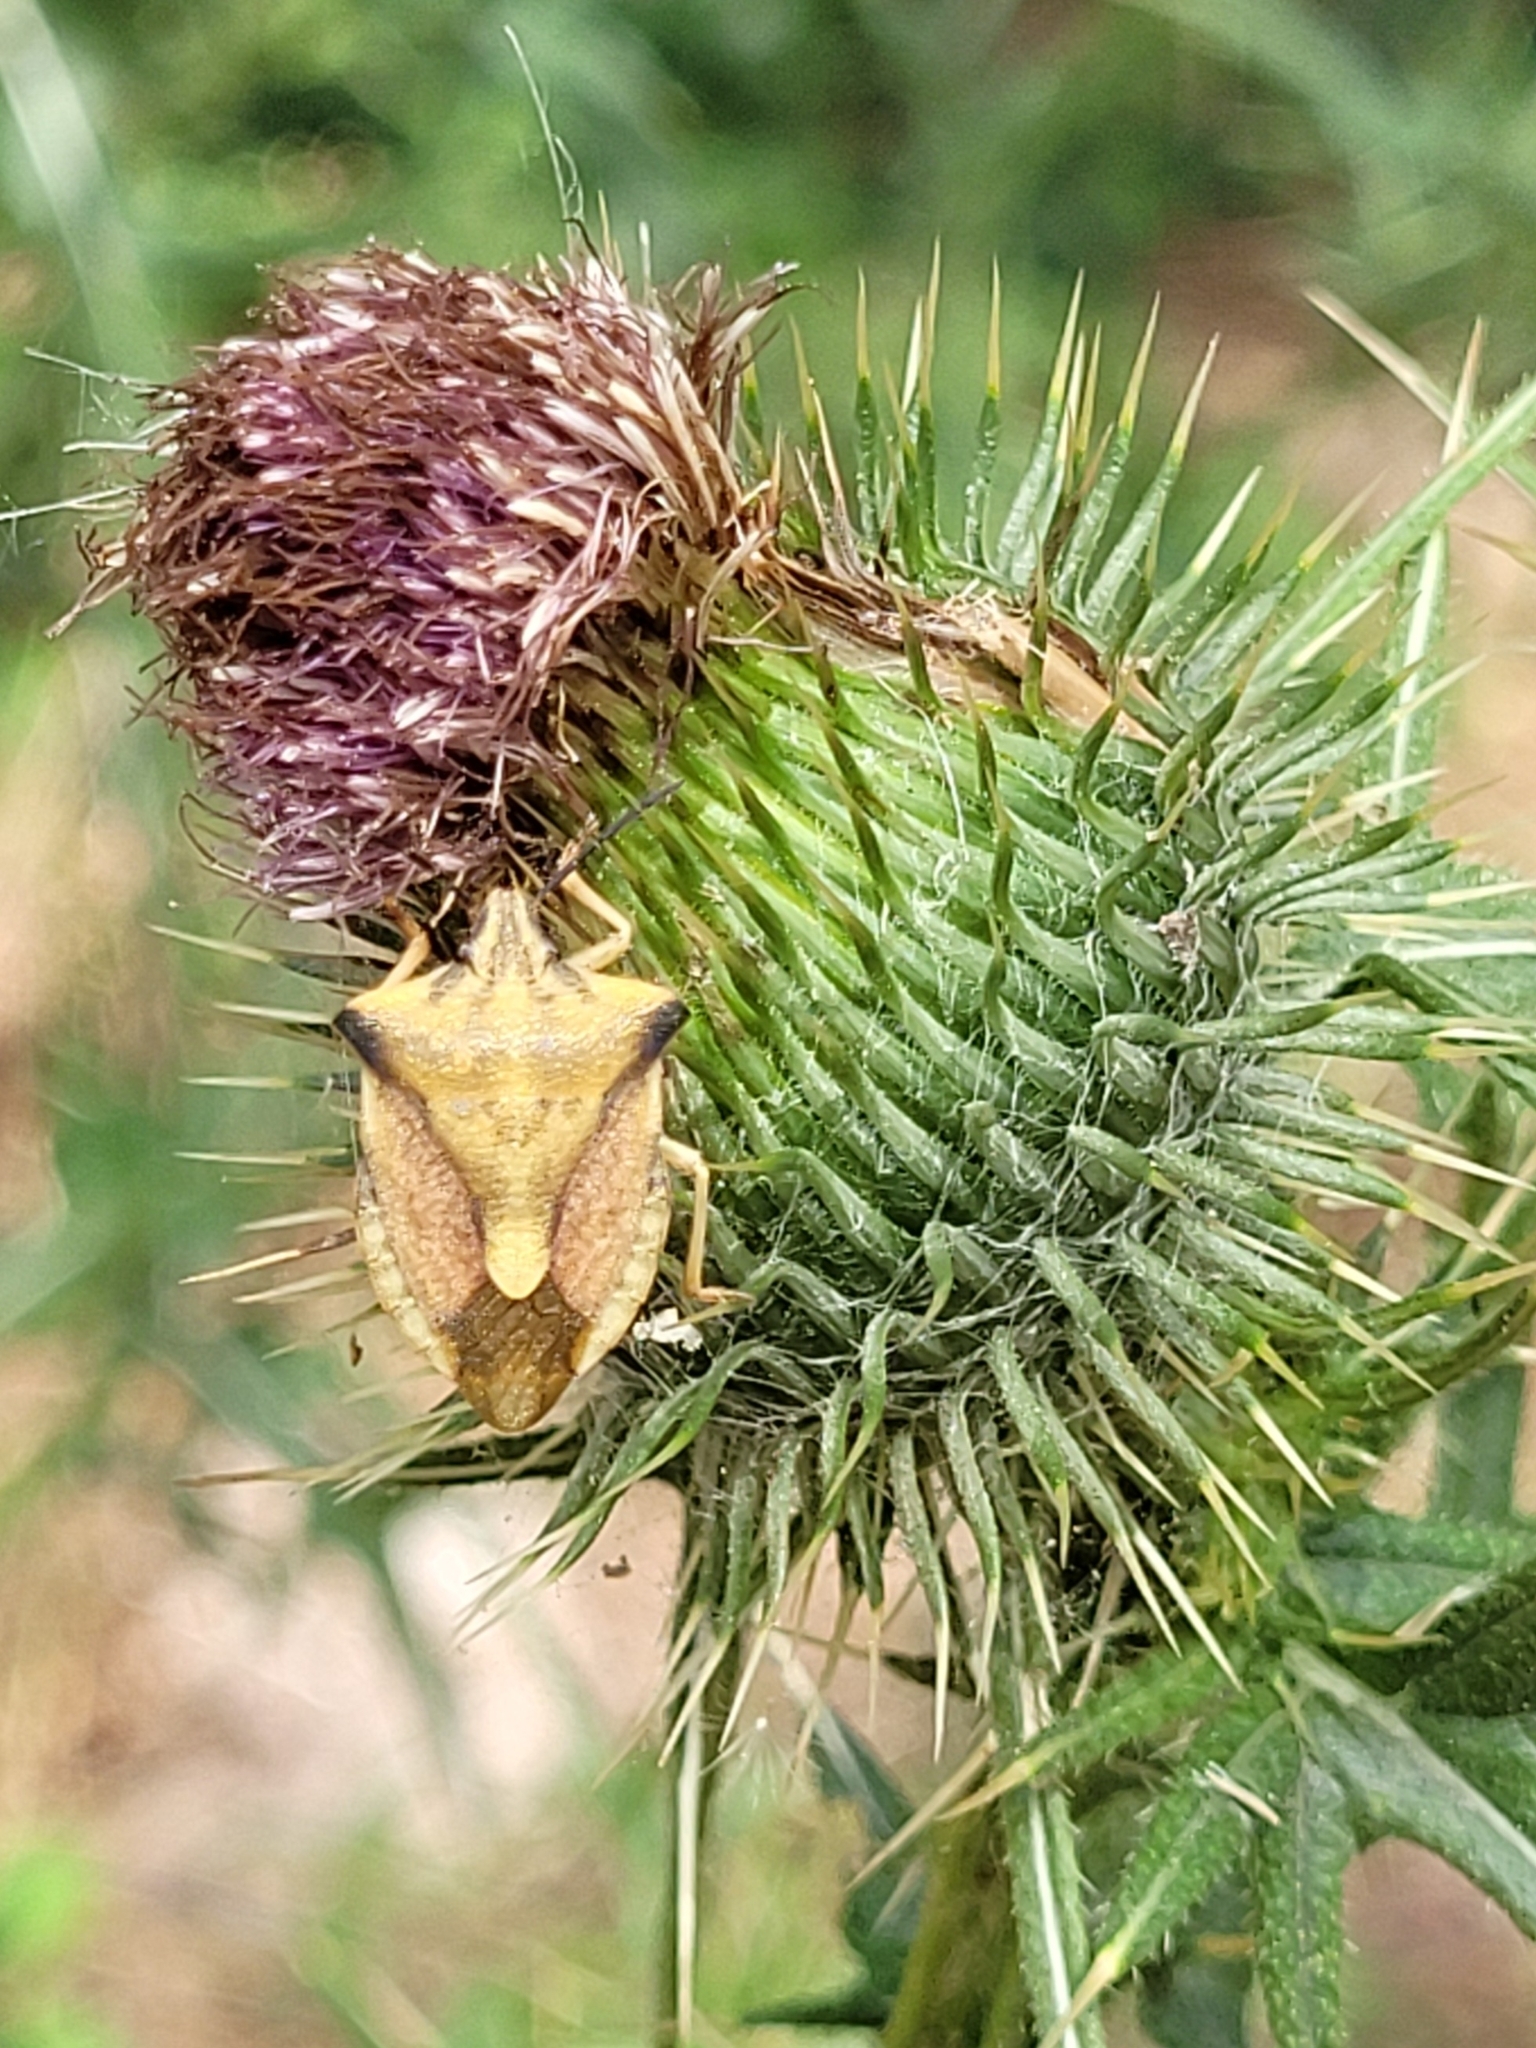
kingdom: Animalia
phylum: Arthropoda
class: Insecta
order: Hemiptera
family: Pentatomidae
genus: Carpocoris
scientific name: Carpocoris fuscispinus
